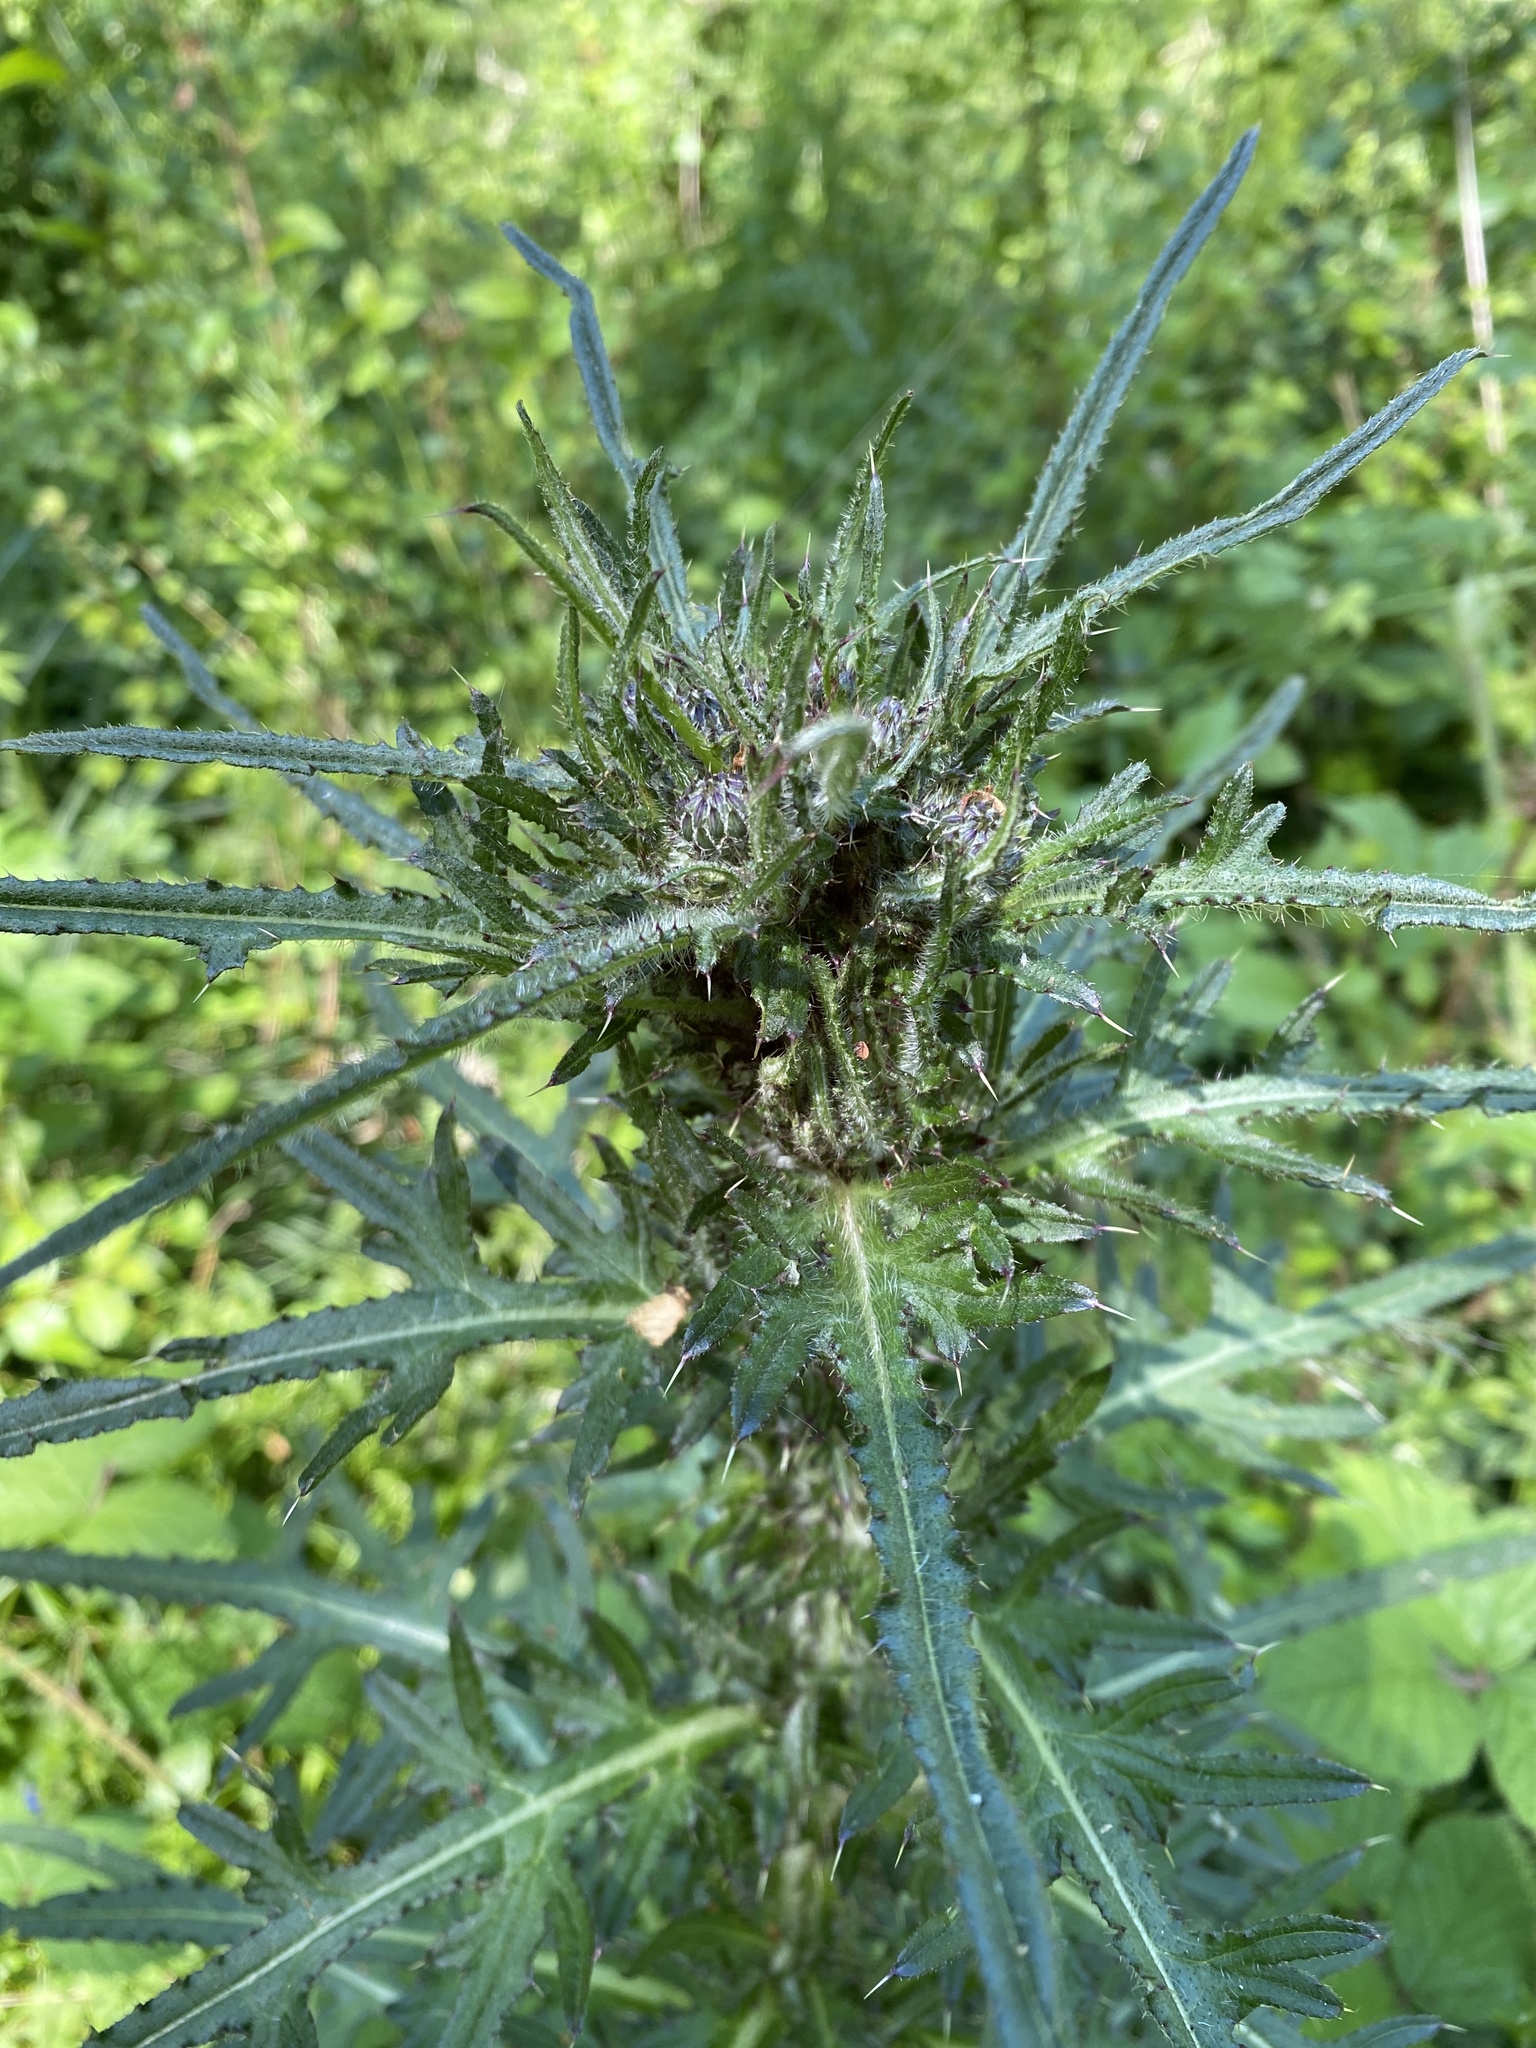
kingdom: Plantae
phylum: Tracheophyta
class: Magnoliopsida
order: Asterales
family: Asteraceae
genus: Cirsium
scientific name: Cirsium palustre
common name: Marsh thistle
